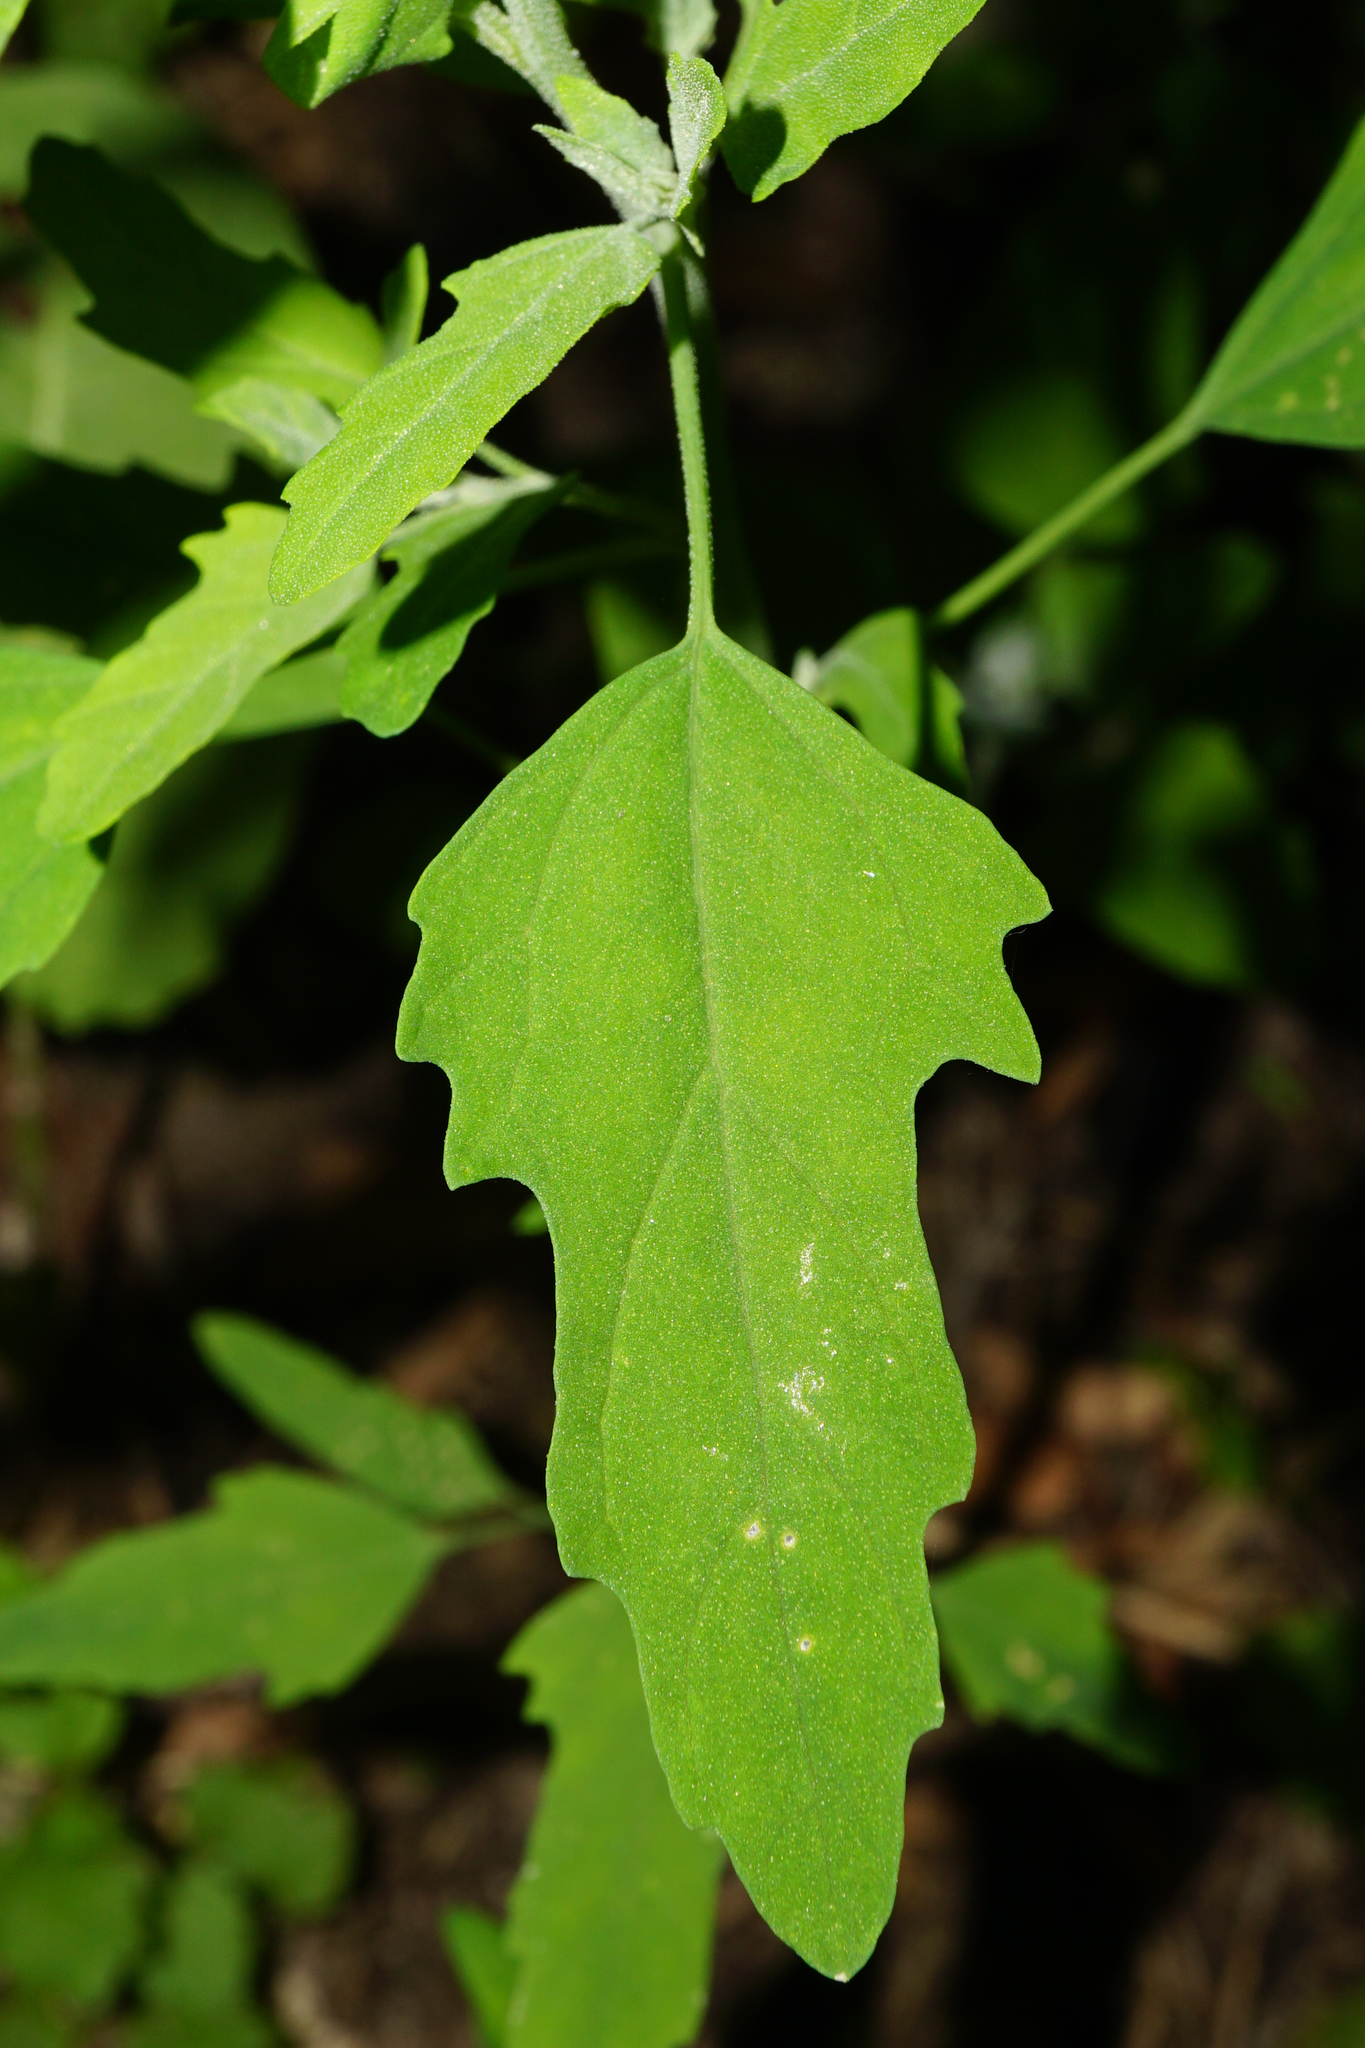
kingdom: Plantae
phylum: Tracheophyta
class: Magnoliopsida
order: Caryophyllales
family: Amaranthaceae
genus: Chenopodium
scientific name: Chenopodium ficifolium
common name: Fig-leaved goosefoot
